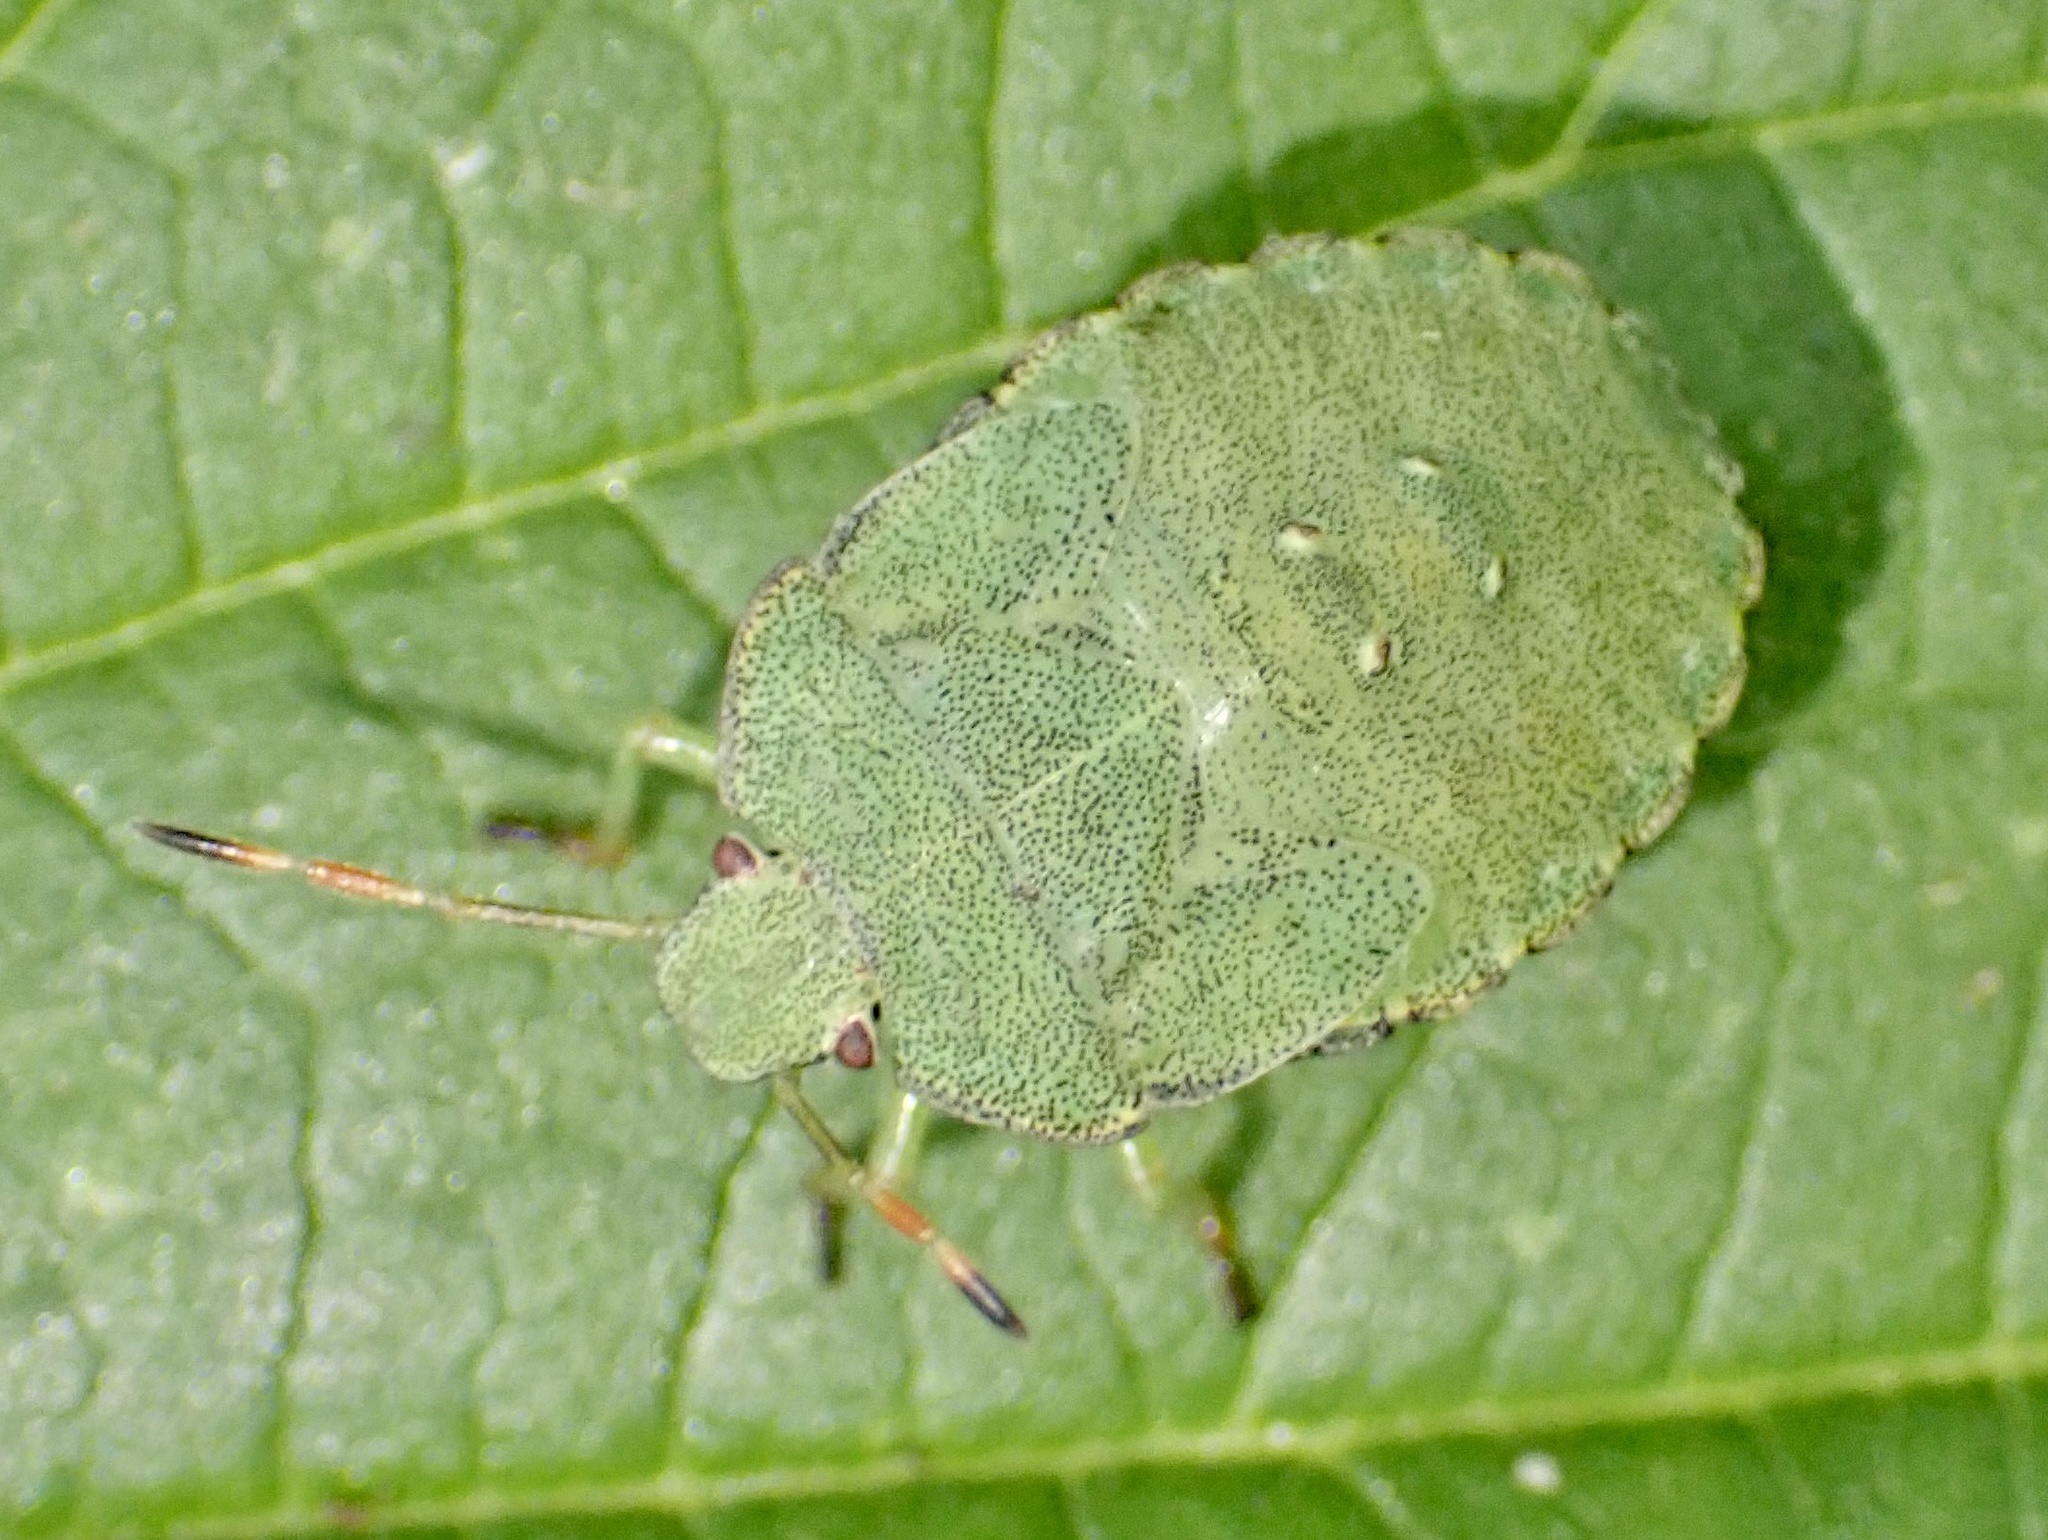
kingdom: Animalia
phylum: Arthropoda
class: Insecta
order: Hemiptera
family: Pentatomidae
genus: Palomena
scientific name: Palomena prasina
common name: Green shieldbug
